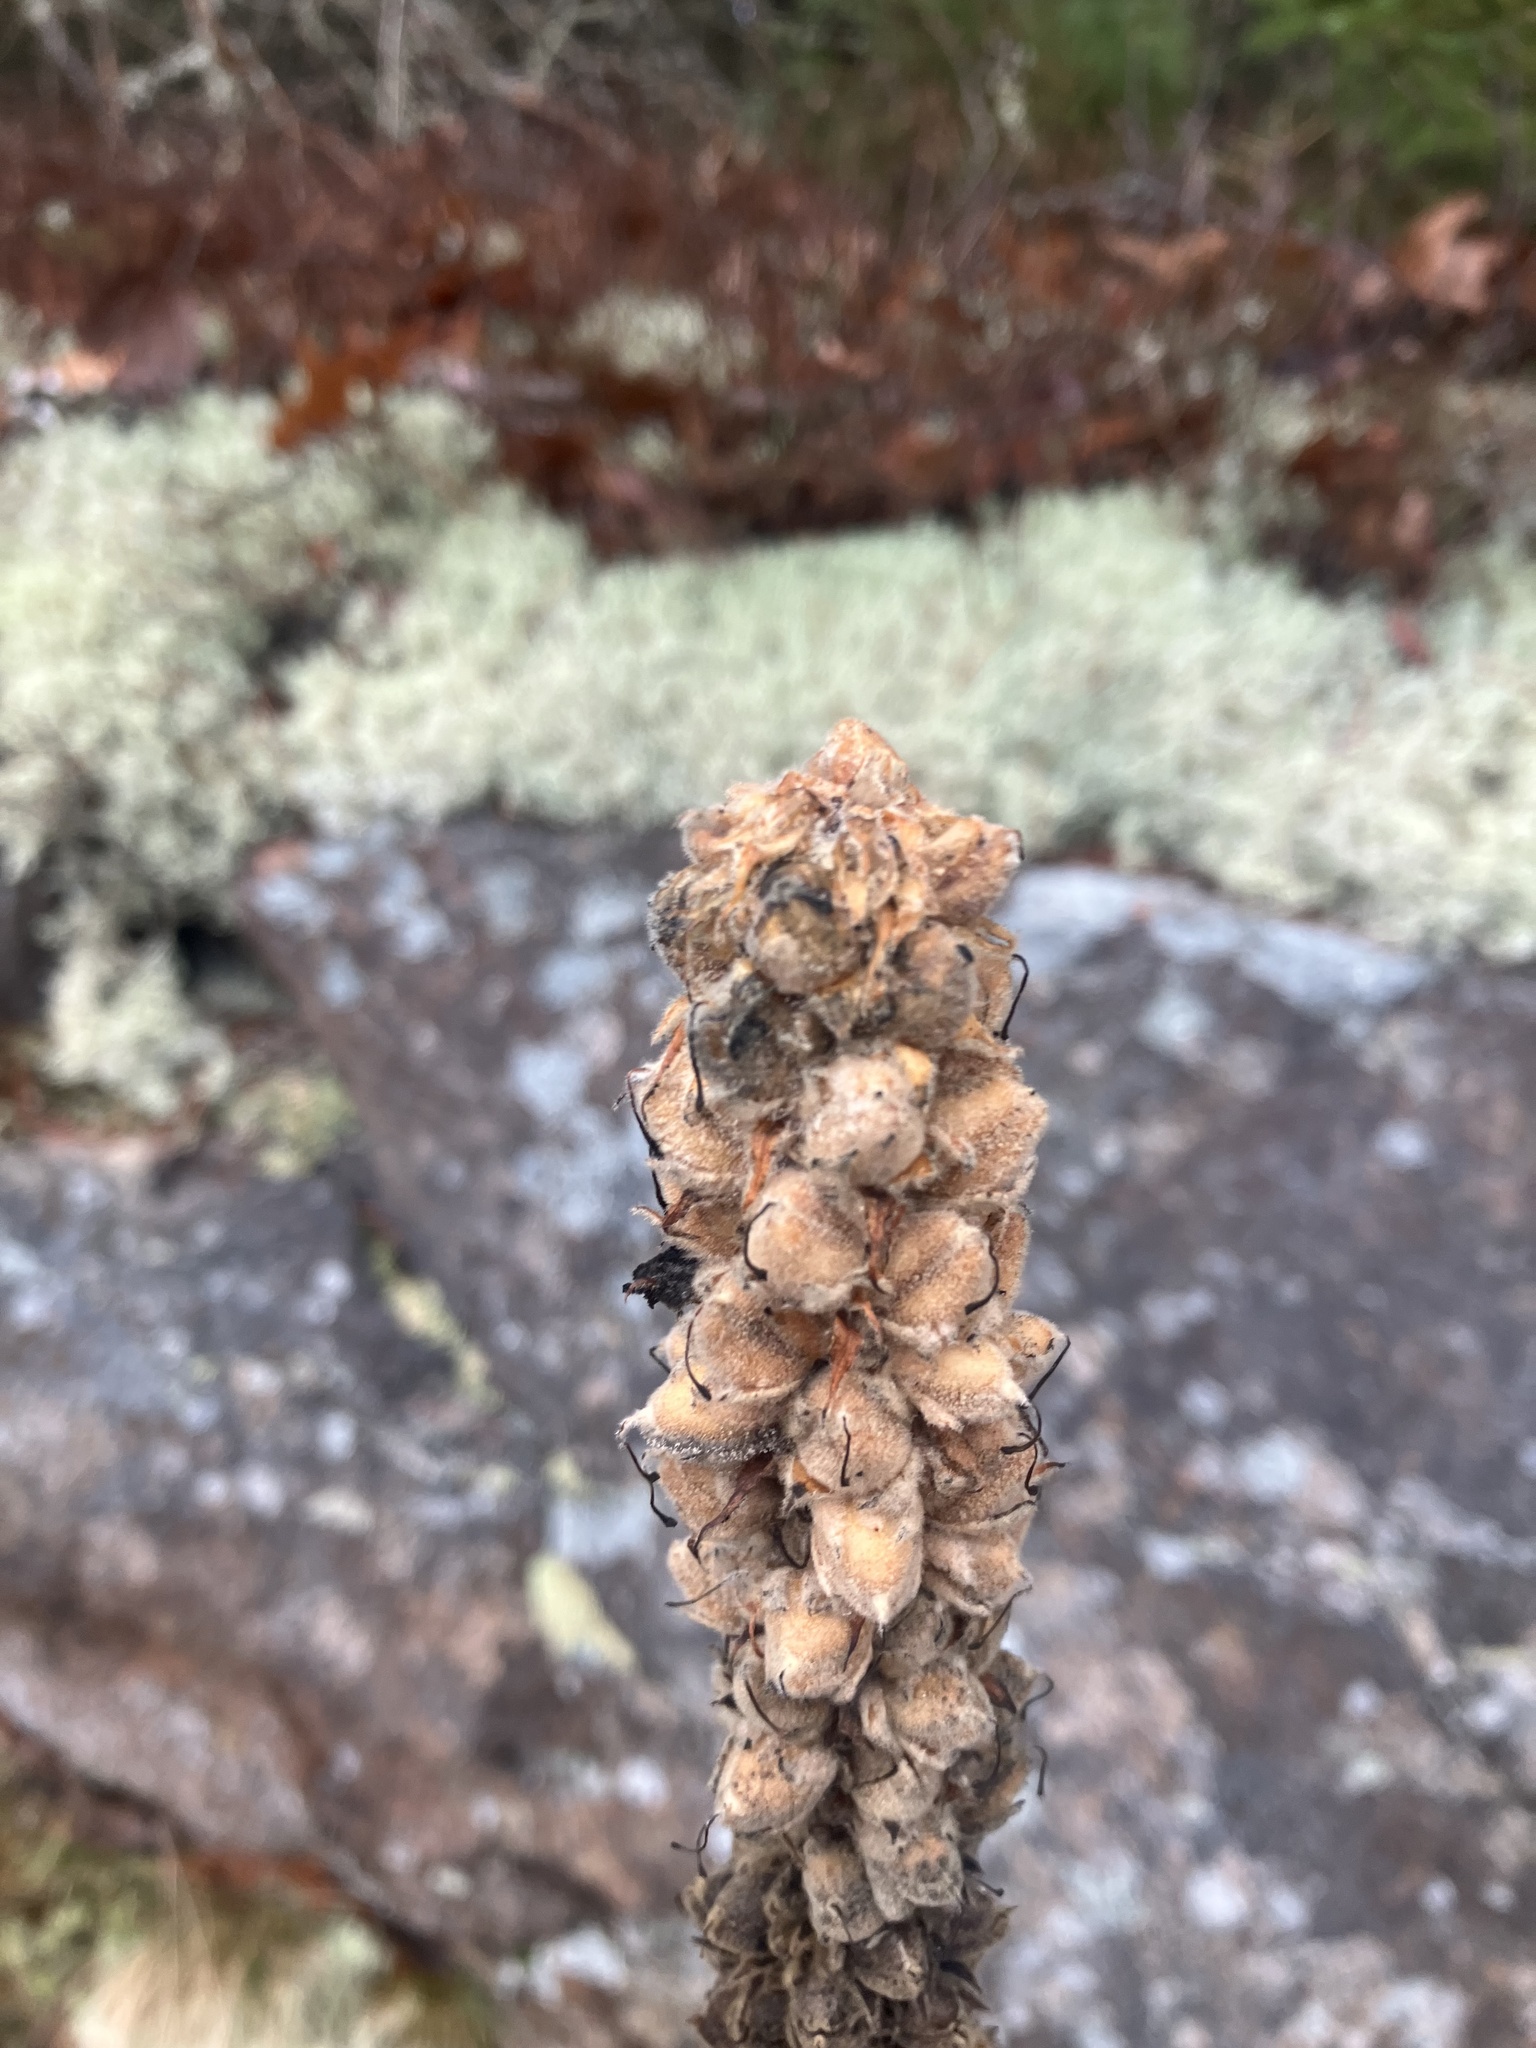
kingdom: Plantae
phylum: Tracheophyta
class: Magnoliopsida
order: Lamiales
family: Scrophulariaceae
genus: Verbascum
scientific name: Verbascum thapsus
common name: Common mullein
